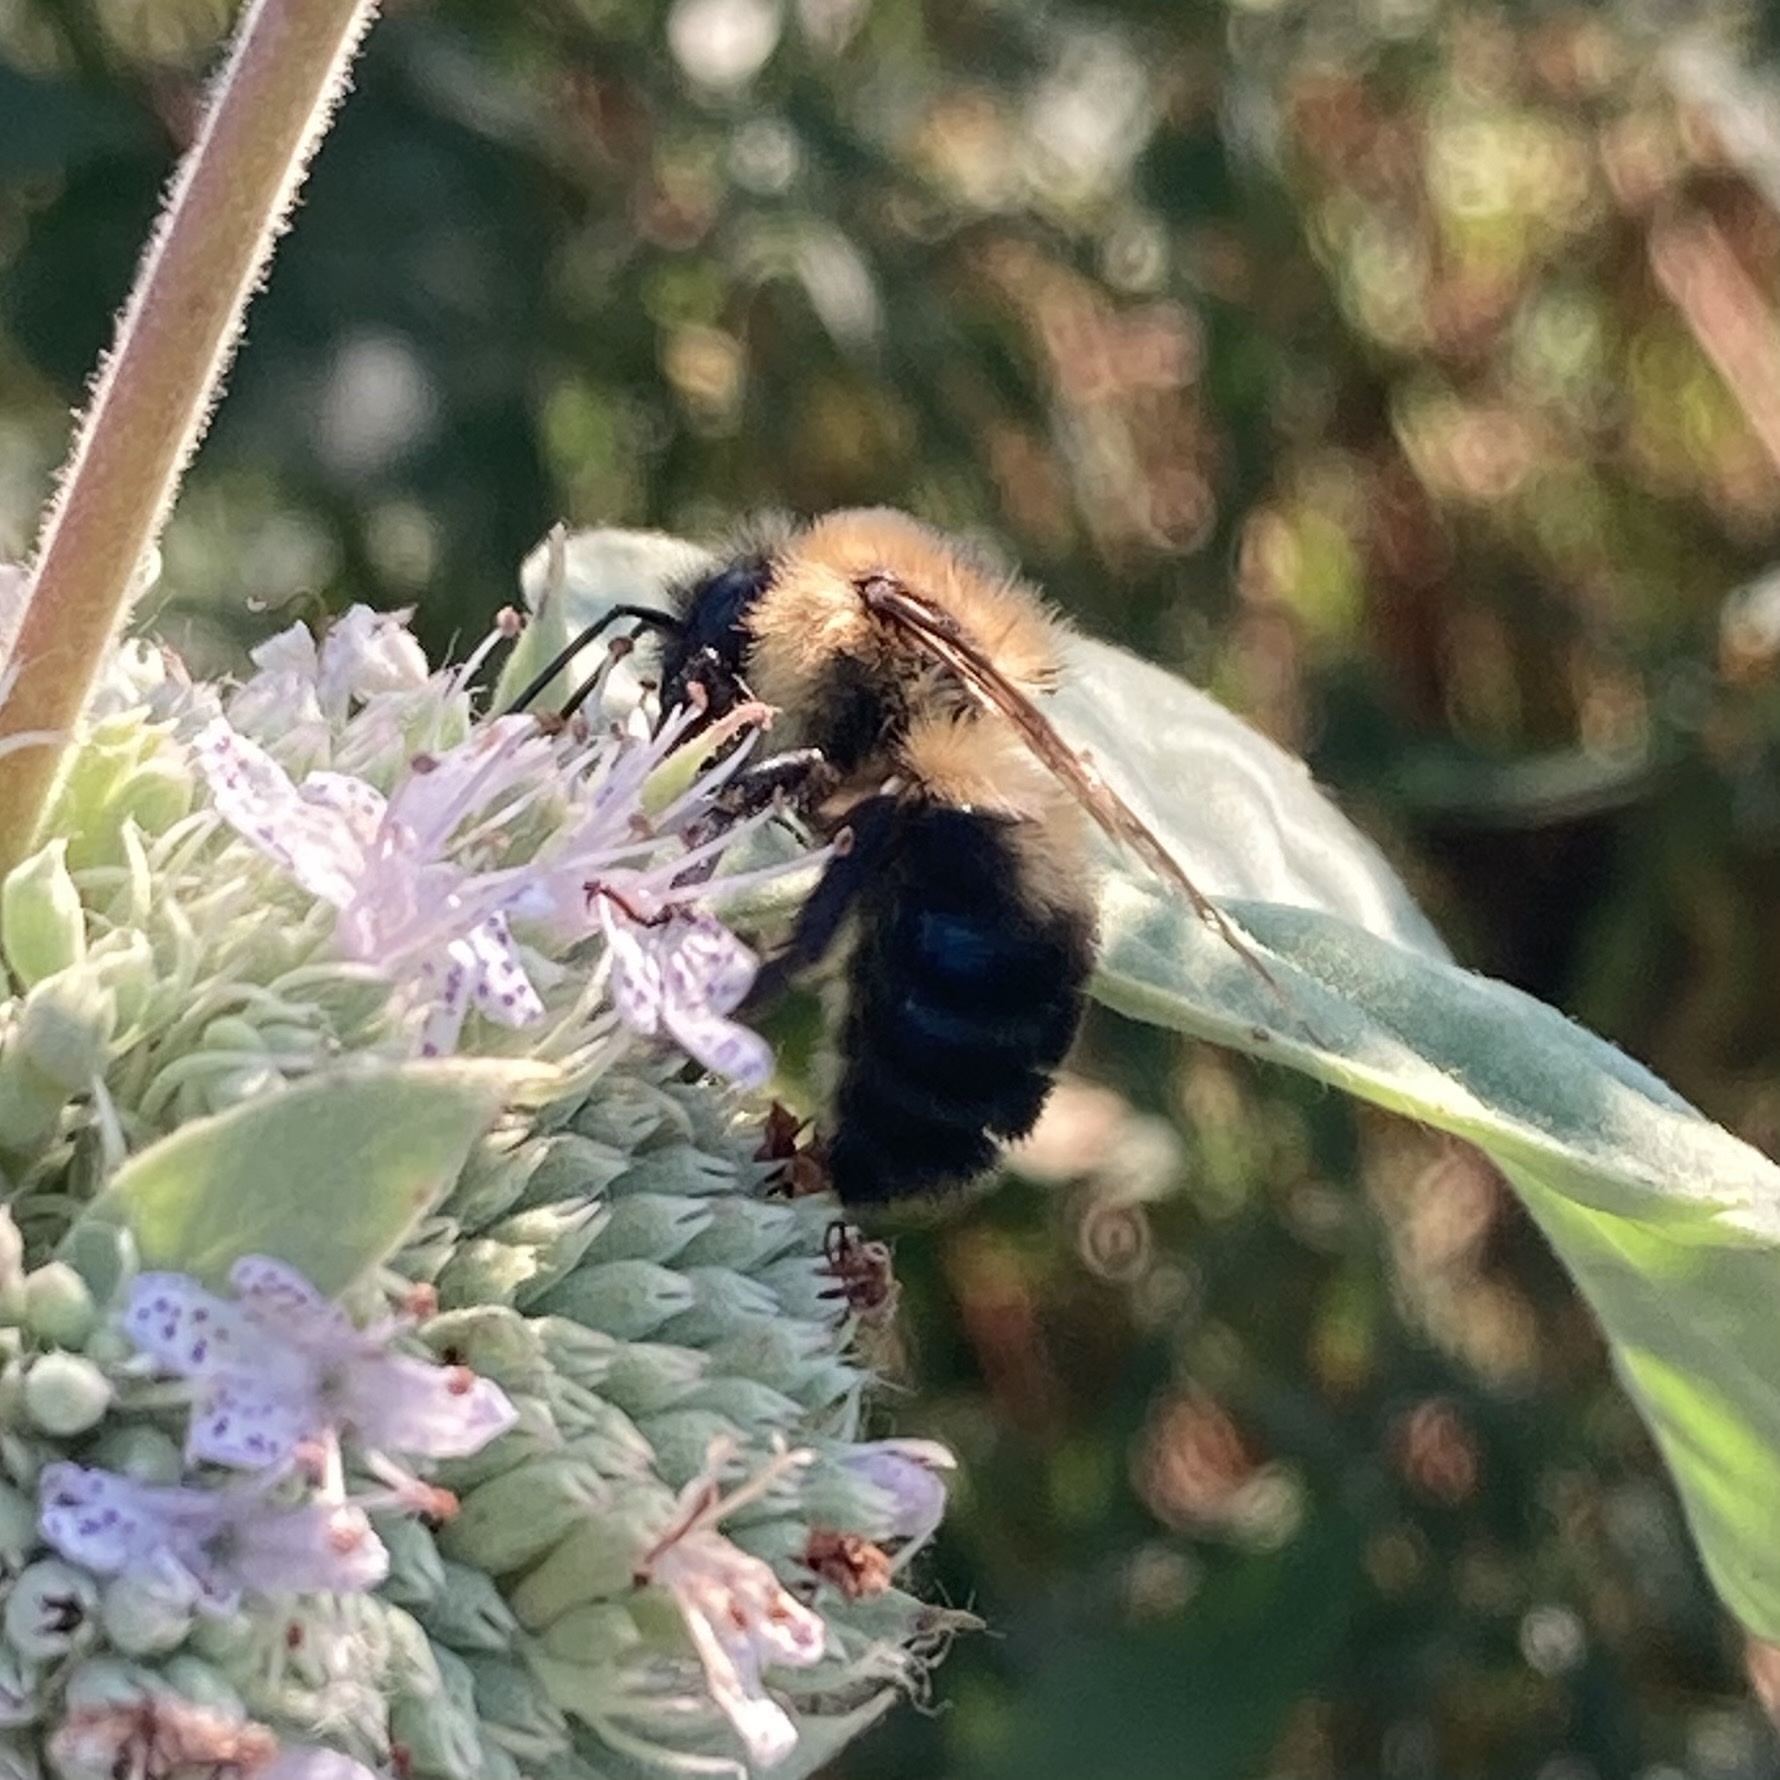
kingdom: Animalia
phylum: Arthropoda
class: Insecta
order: Hymenoptera
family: Apidae
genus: Bombus
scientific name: Bombus bimaculatus
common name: Two-spotted bumble bee
